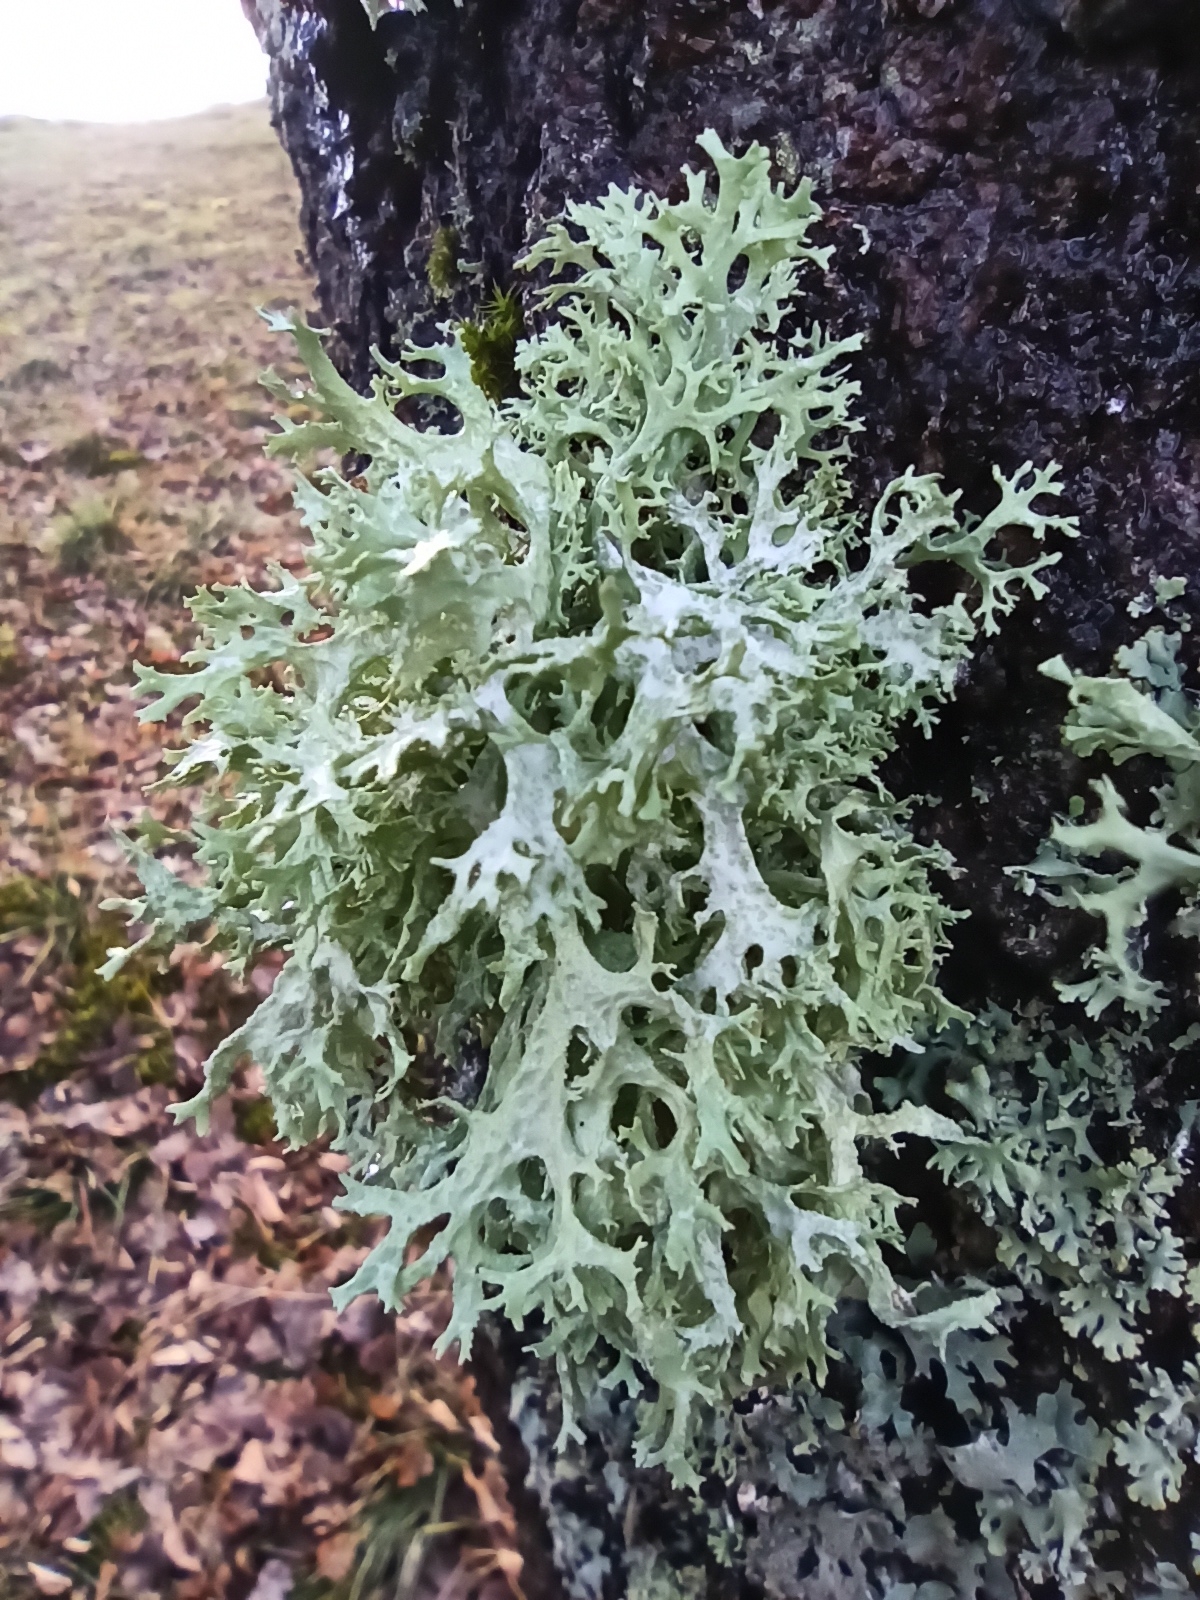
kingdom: Fungi
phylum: Ascomycota
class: Lecanoromycetes
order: Lecanorales
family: Parmeliaceae
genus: Evernia
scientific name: Evernia prunastri
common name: Oak moss
